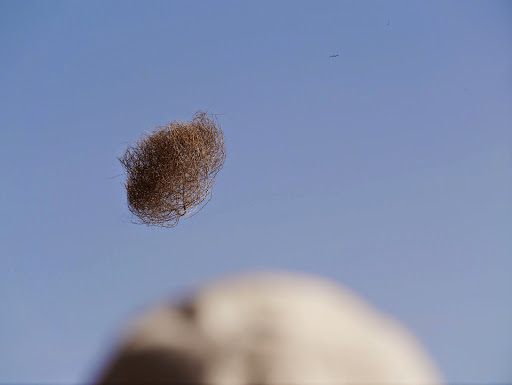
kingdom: Plantae
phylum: Tracheophyta
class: Magnoliopsida
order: Caryophyllales
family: Amaranthaceae
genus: Salsola
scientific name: Salsola tragus
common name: Prickly russian thistle
